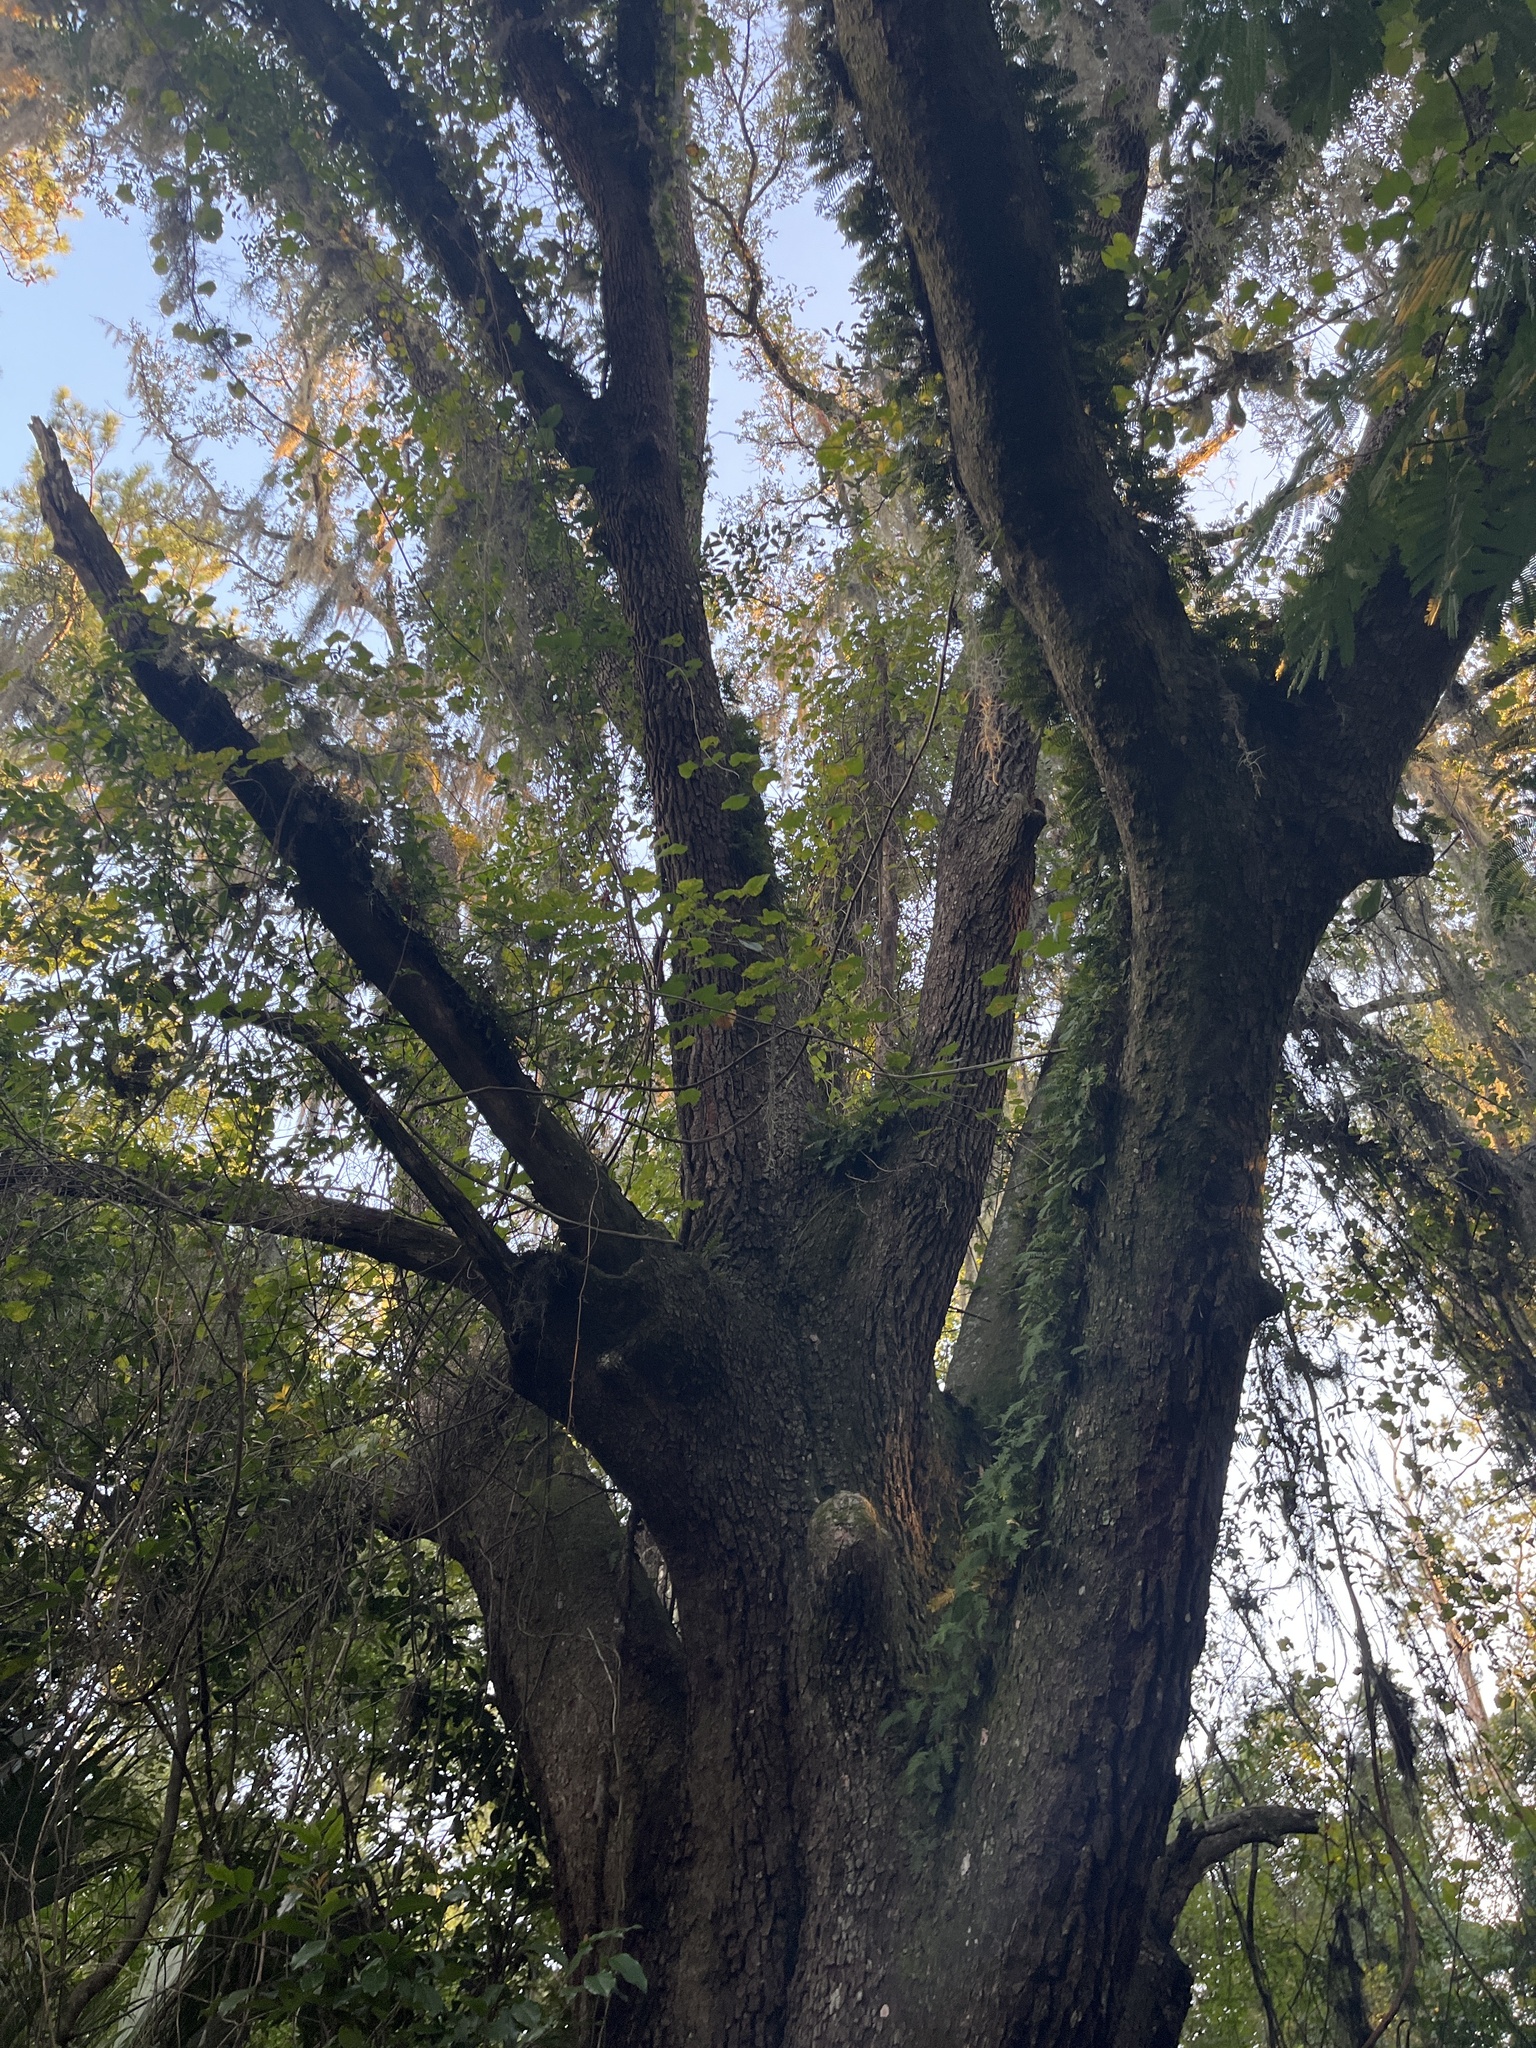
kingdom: Plantae
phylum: Tracheophyta
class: Magnoliopsida
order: Fagales
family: Fagaceae
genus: Quercus
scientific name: Quercus virginiana
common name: Southern live oak
